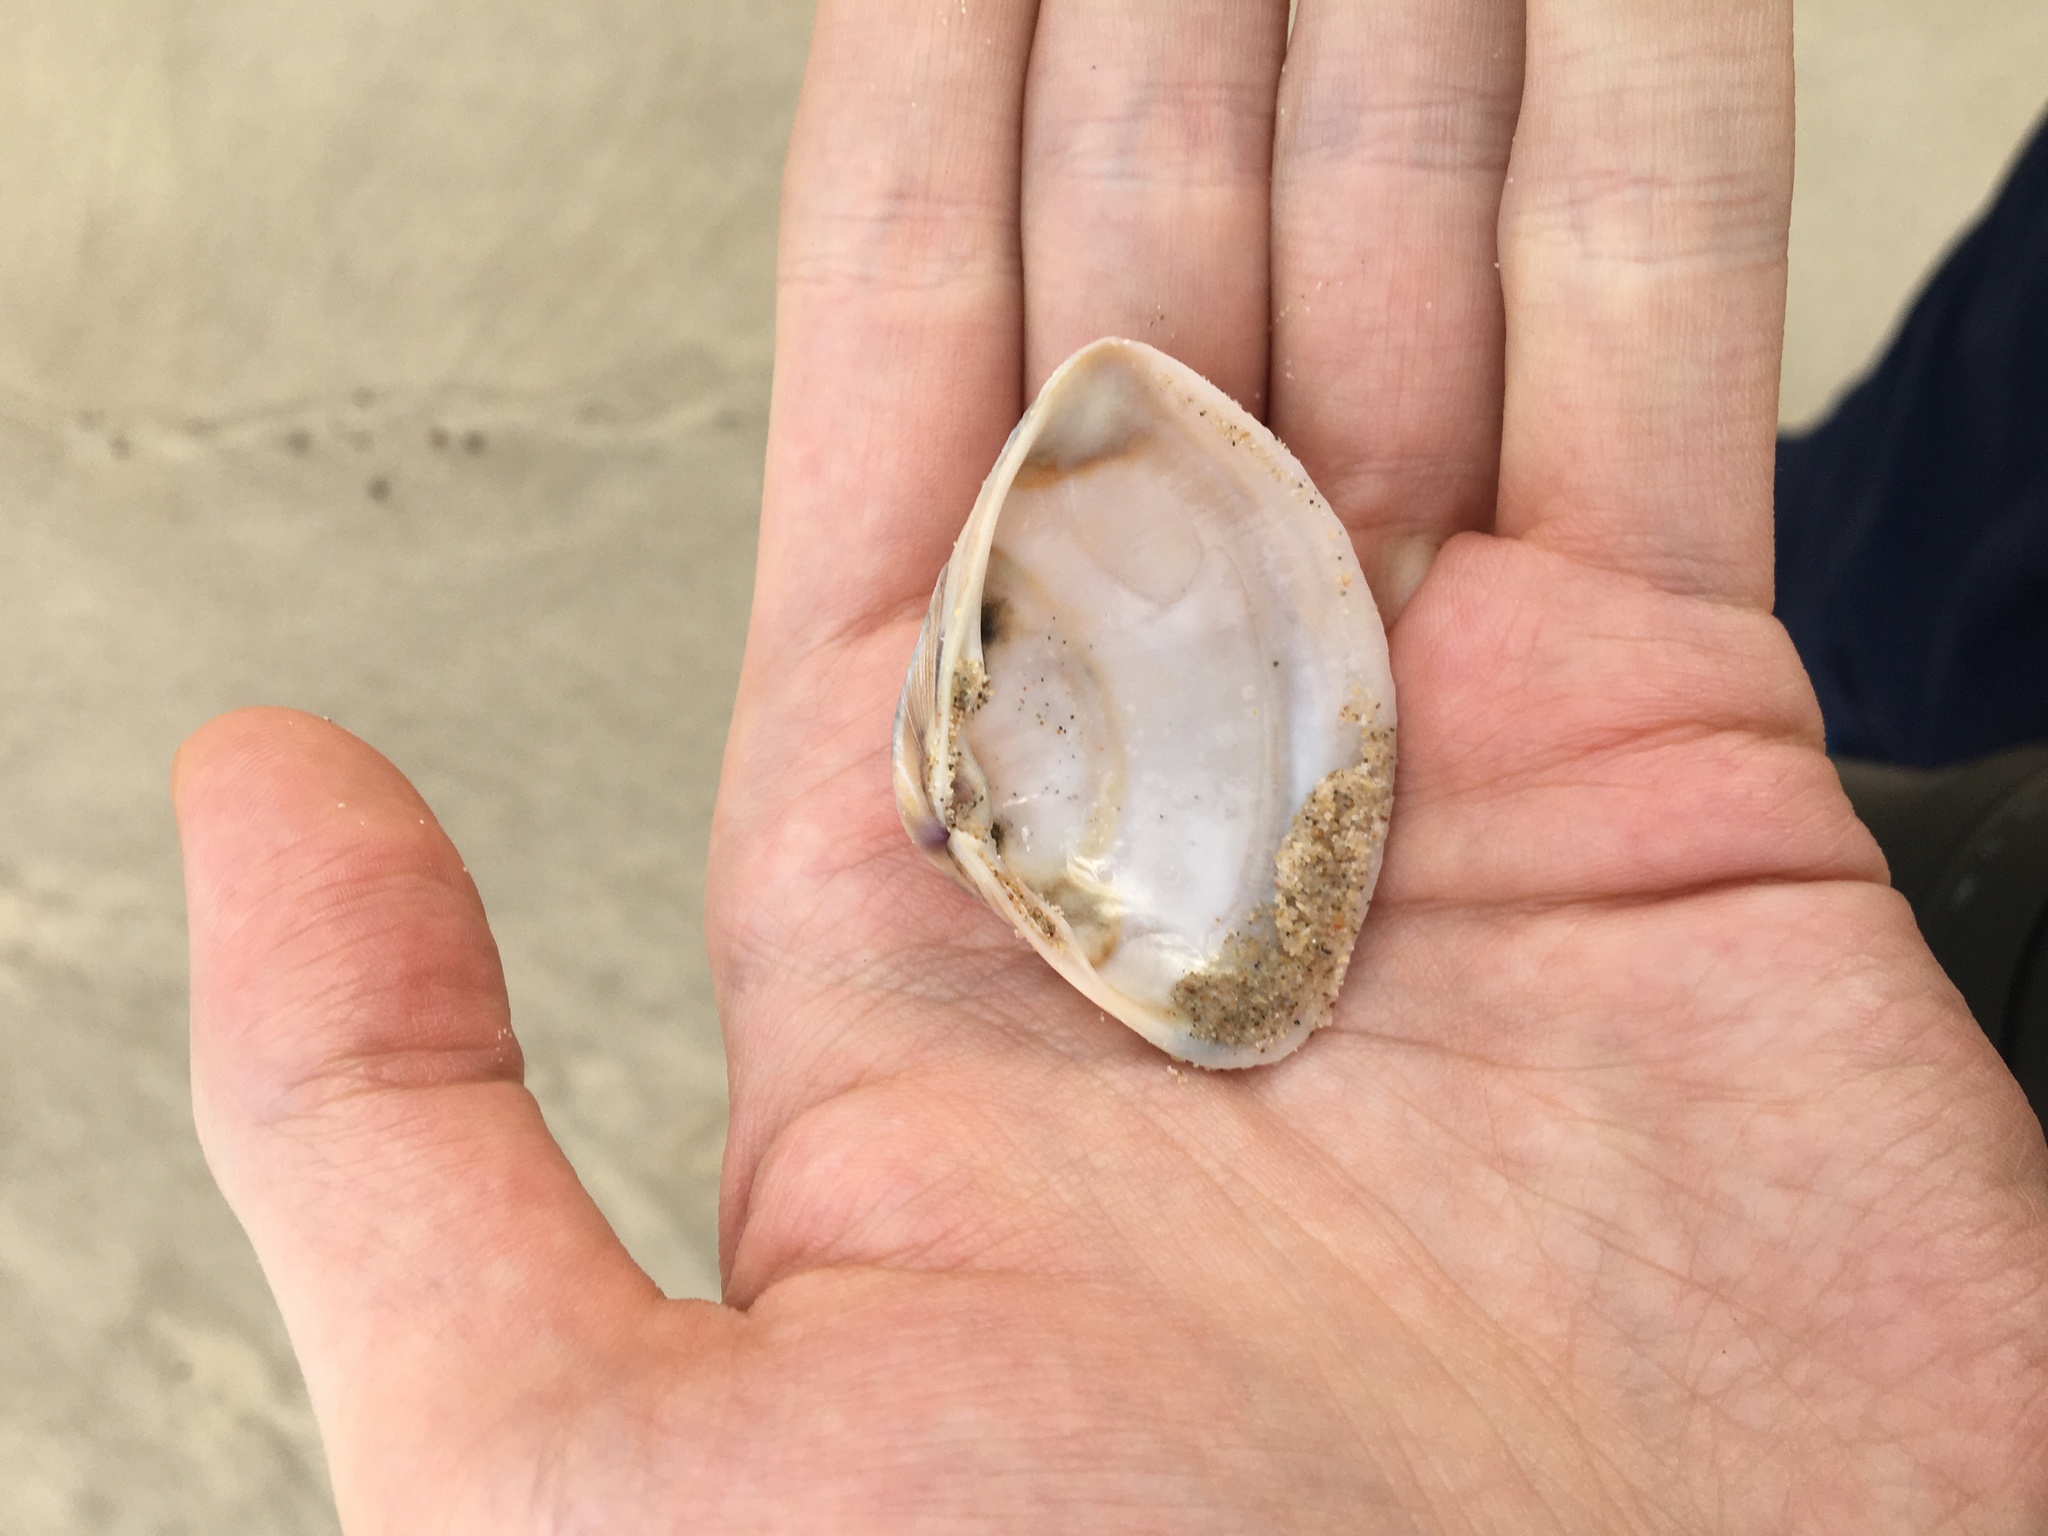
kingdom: Animalia
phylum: Mollusca
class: Bivalvia
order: Venerida
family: Mactridae
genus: Austromactra
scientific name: Austromactra rufescens
